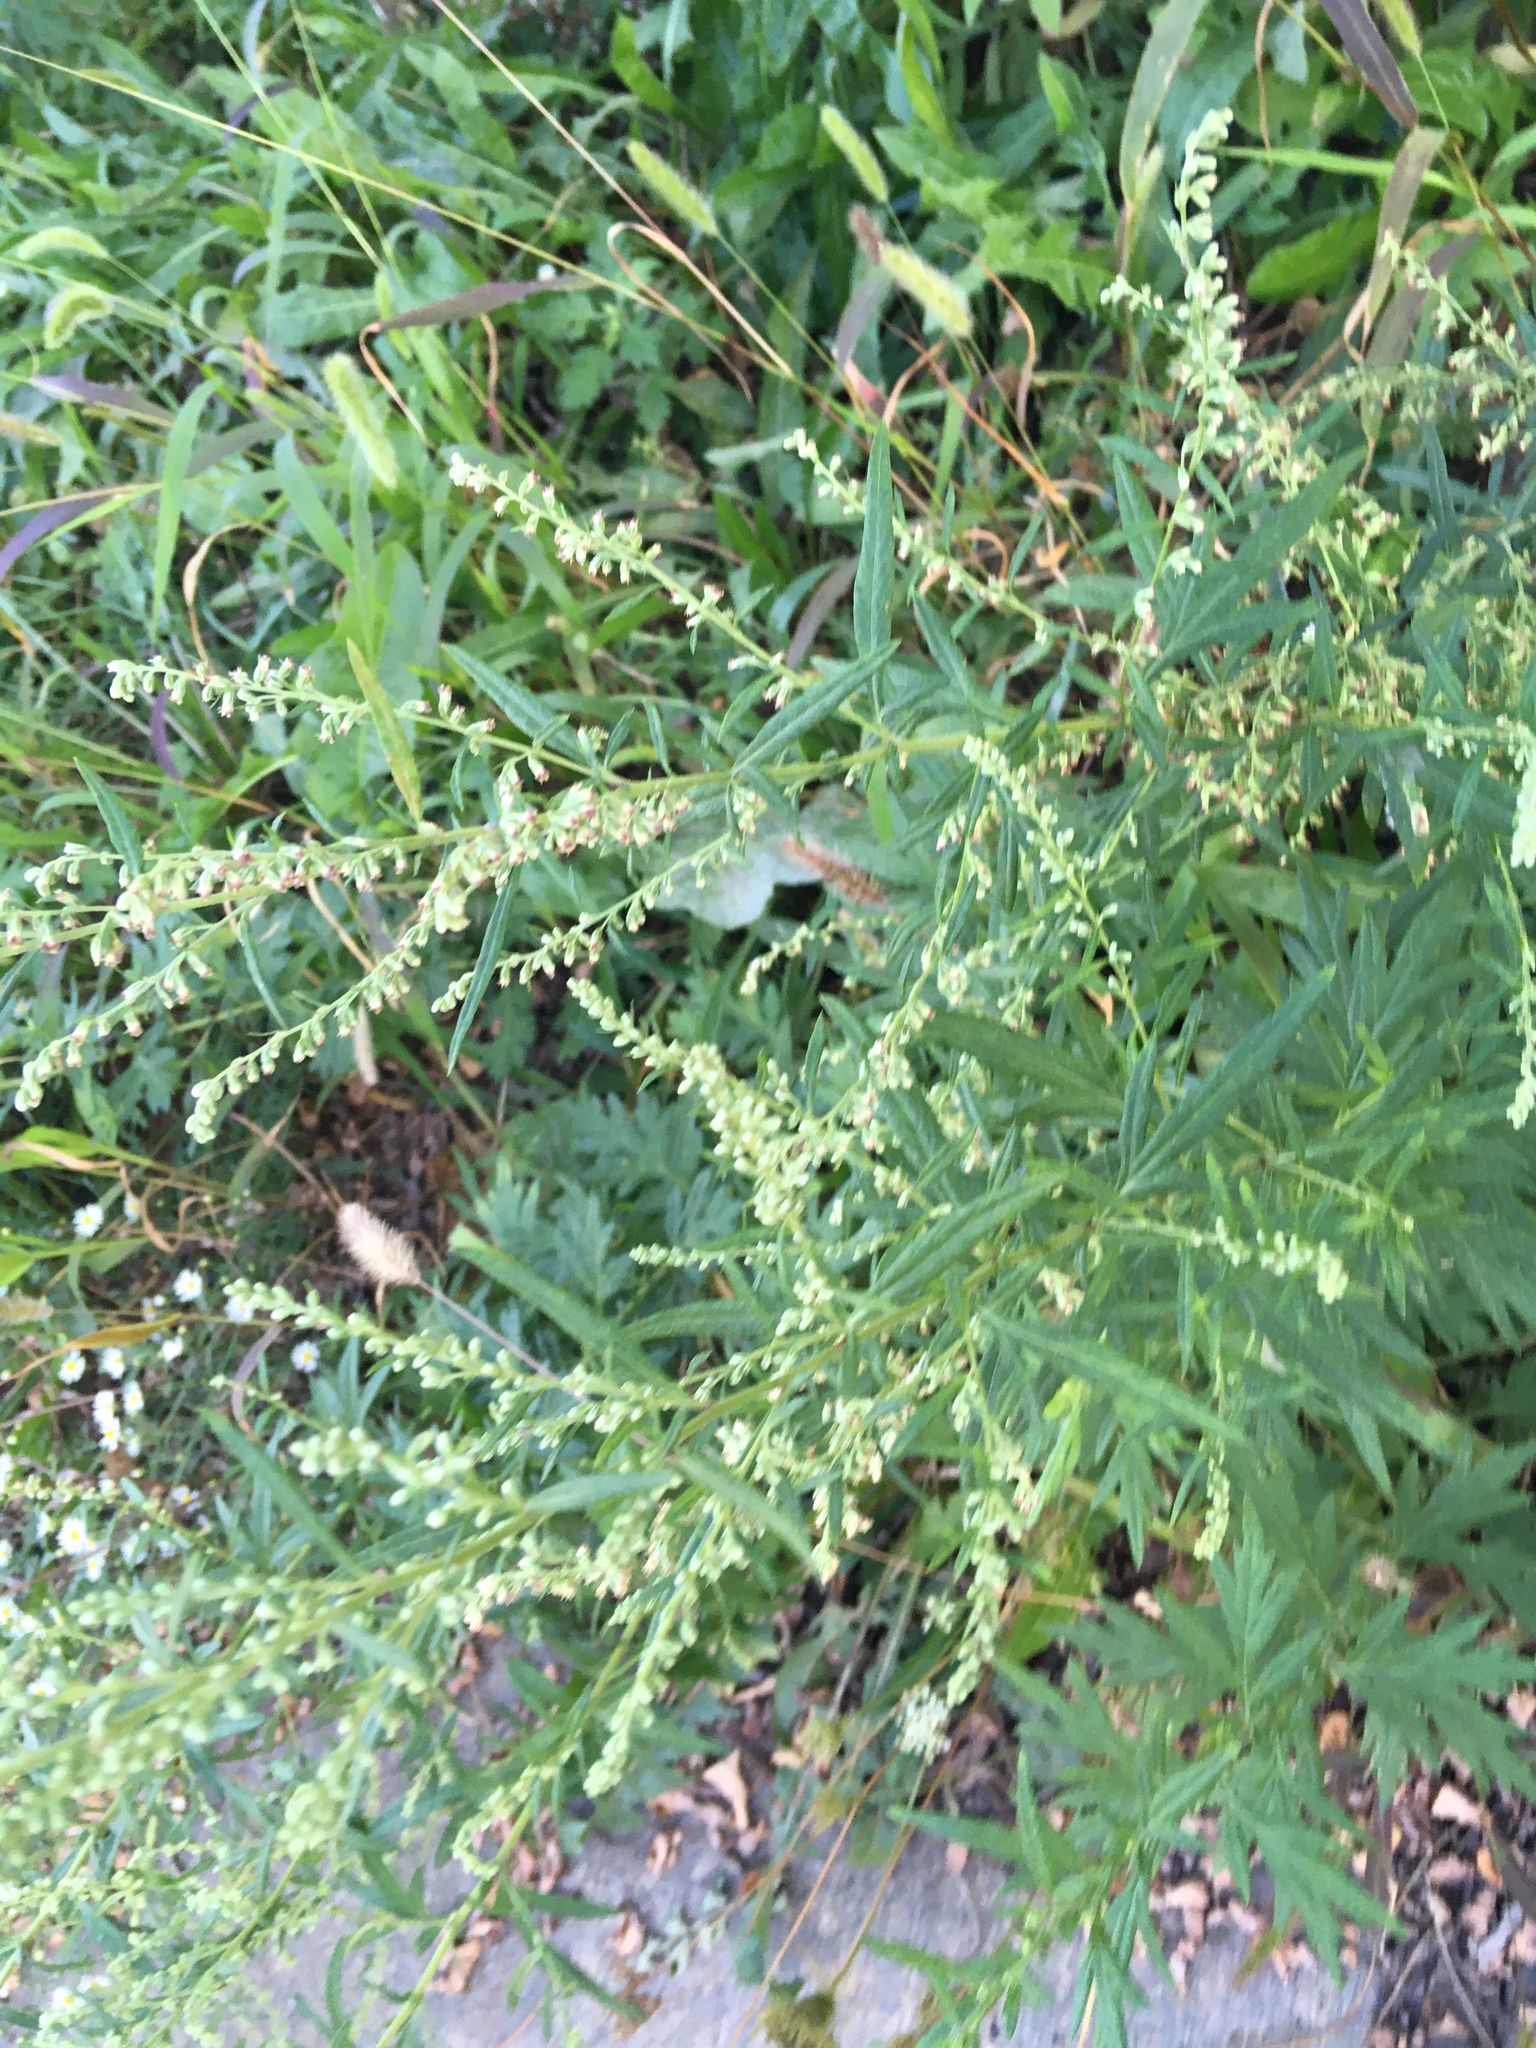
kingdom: Plantae
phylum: Tracheophyta
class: Magnoliopsida
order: Asterales
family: Asteraceae
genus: Artemisia
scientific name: Artemisia vulgaris
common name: Mugwort
